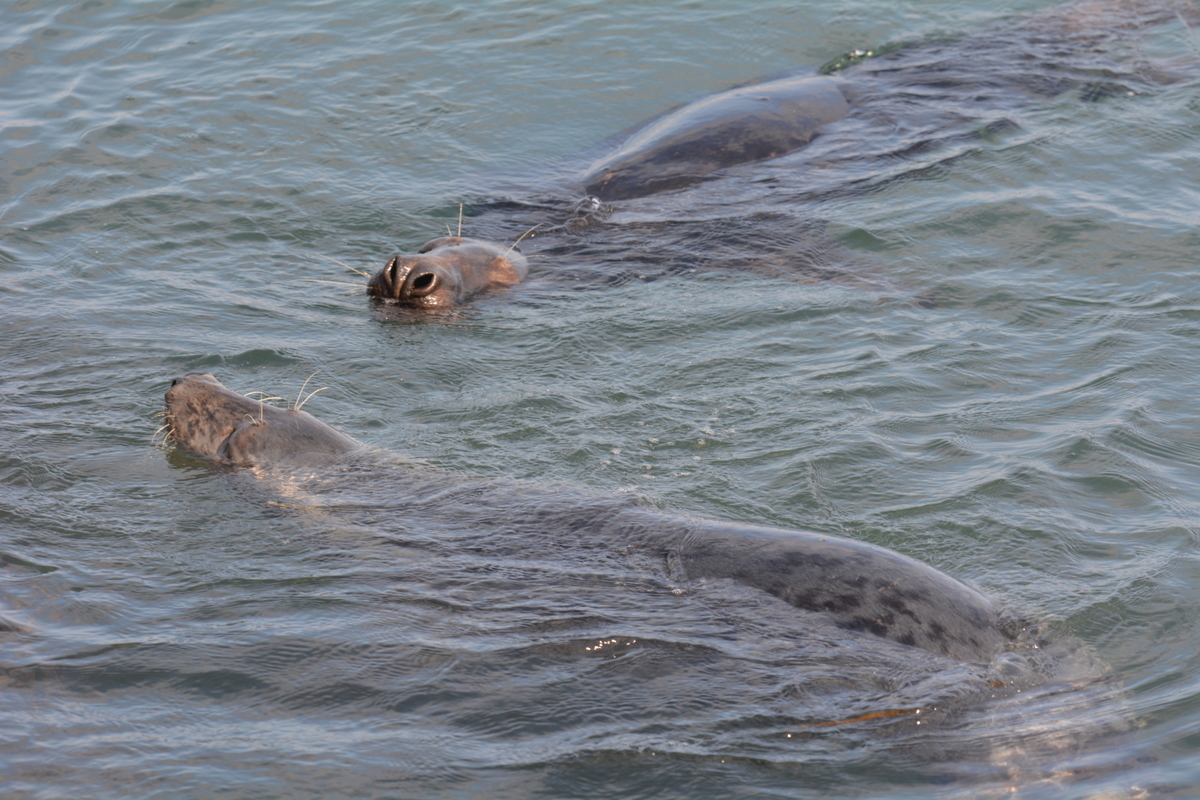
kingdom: Animalia
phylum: Chordata
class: Mammalia
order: Carnivora
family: Phocidae
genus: Halichoerus
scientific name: Halichoerus grypus
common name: Grey seal
